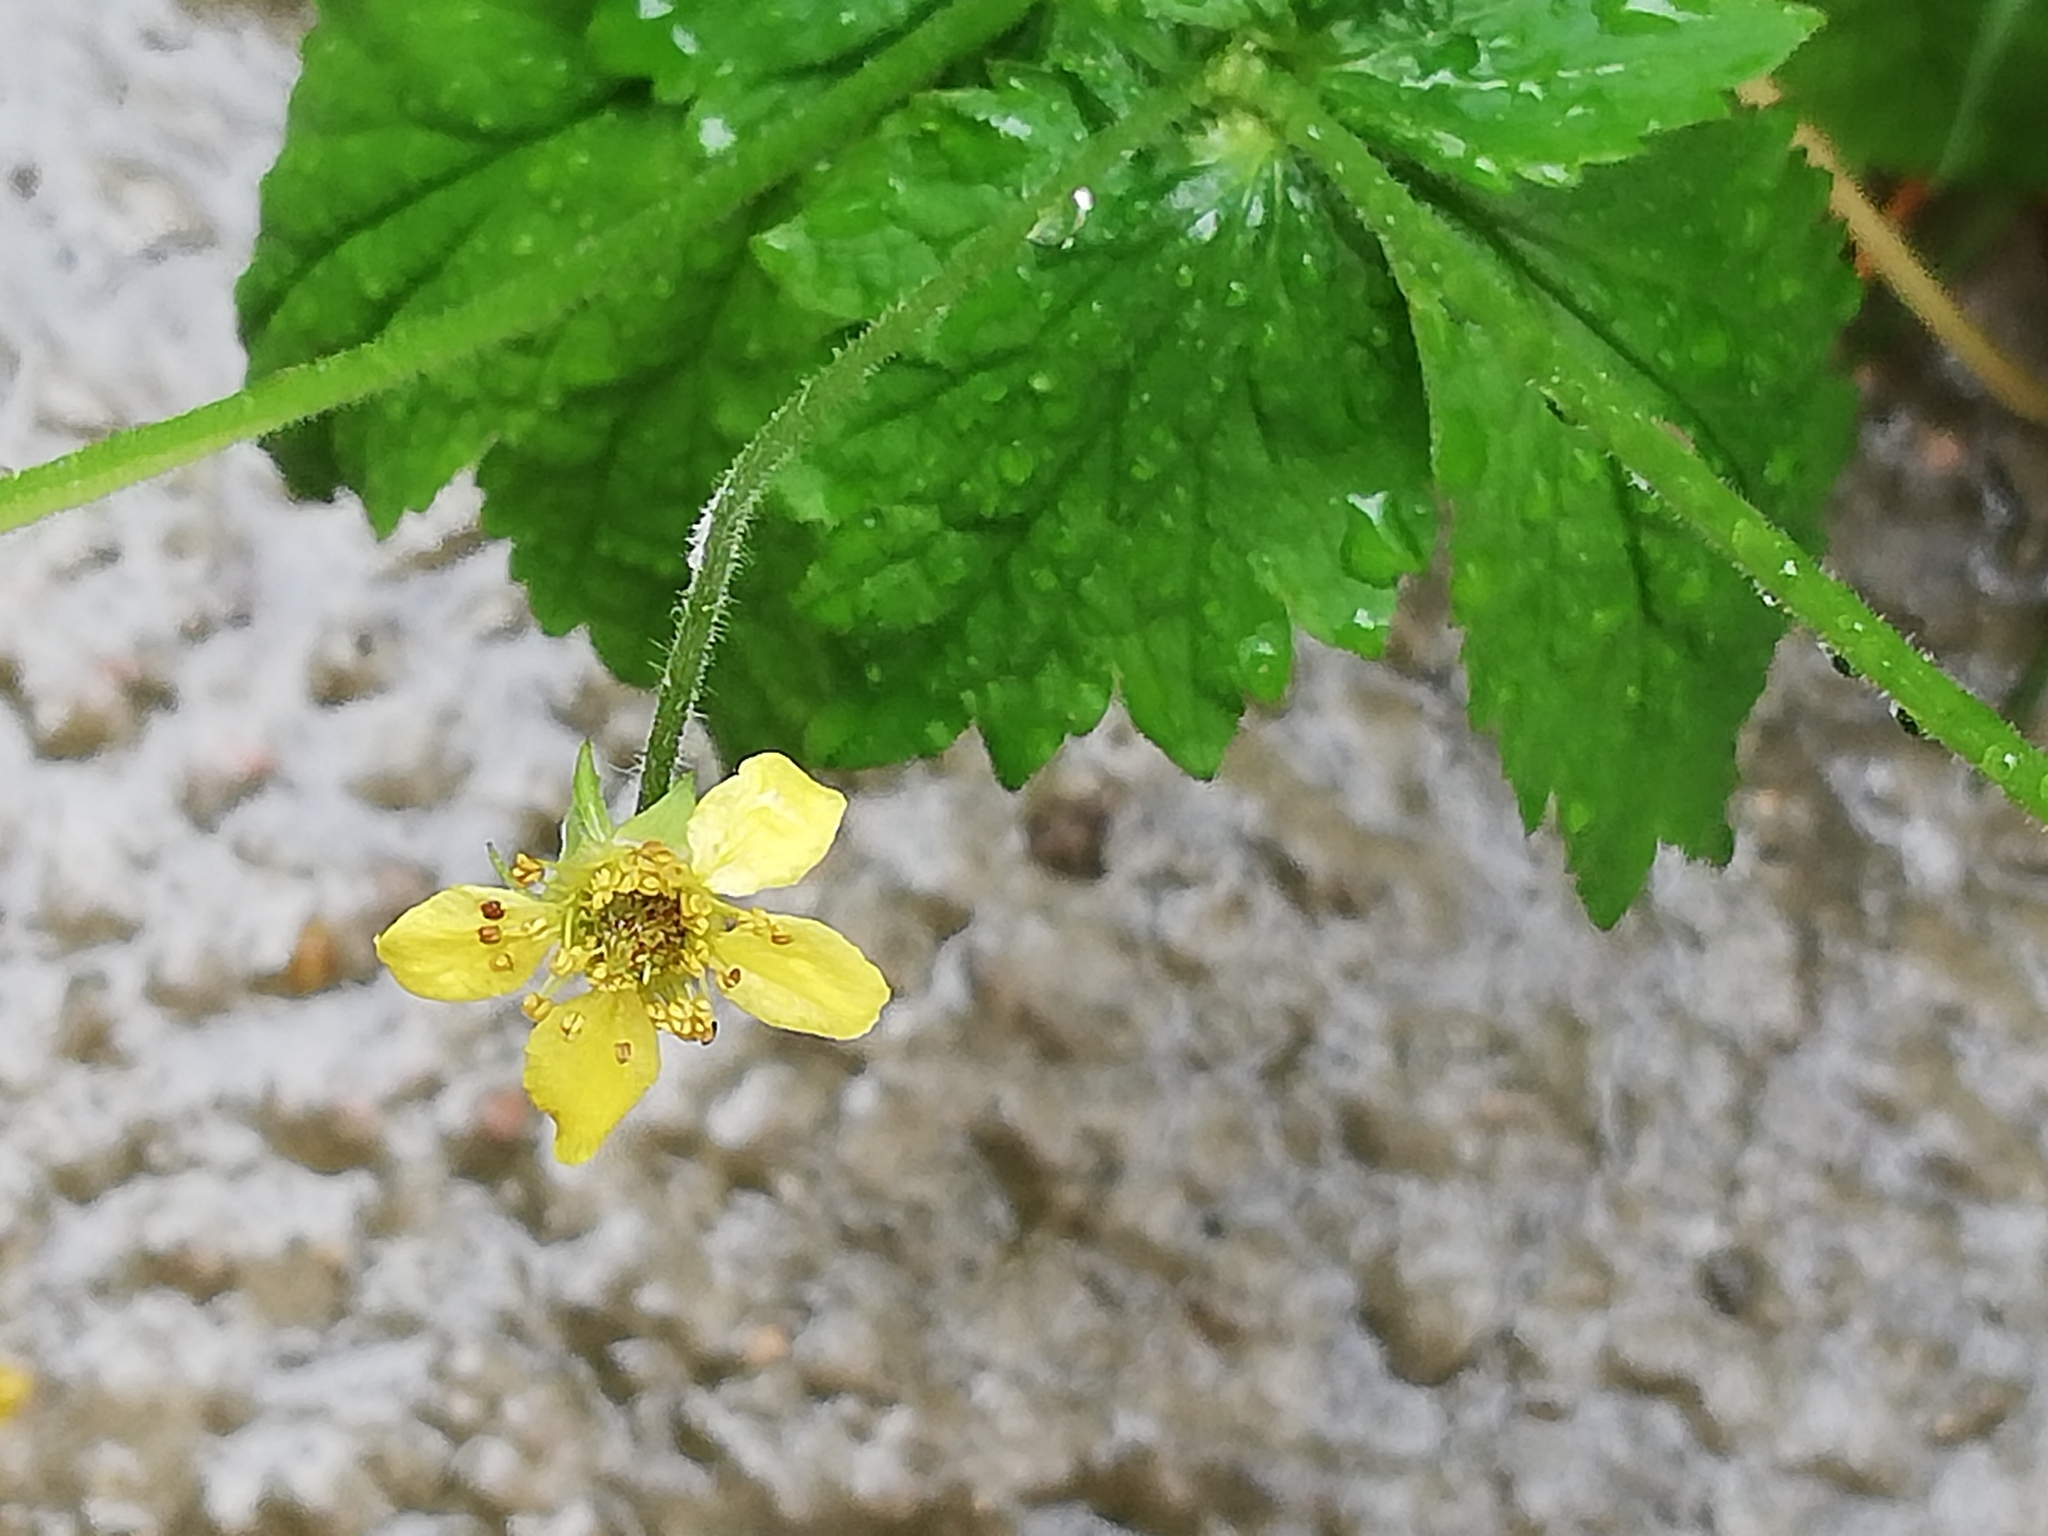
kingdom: Plantae
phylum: Tracheophyta
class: Magnoliopsida
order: Rosales
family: Rosaceae
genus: Geum
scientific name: Geum urbanum
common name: Wood avens
